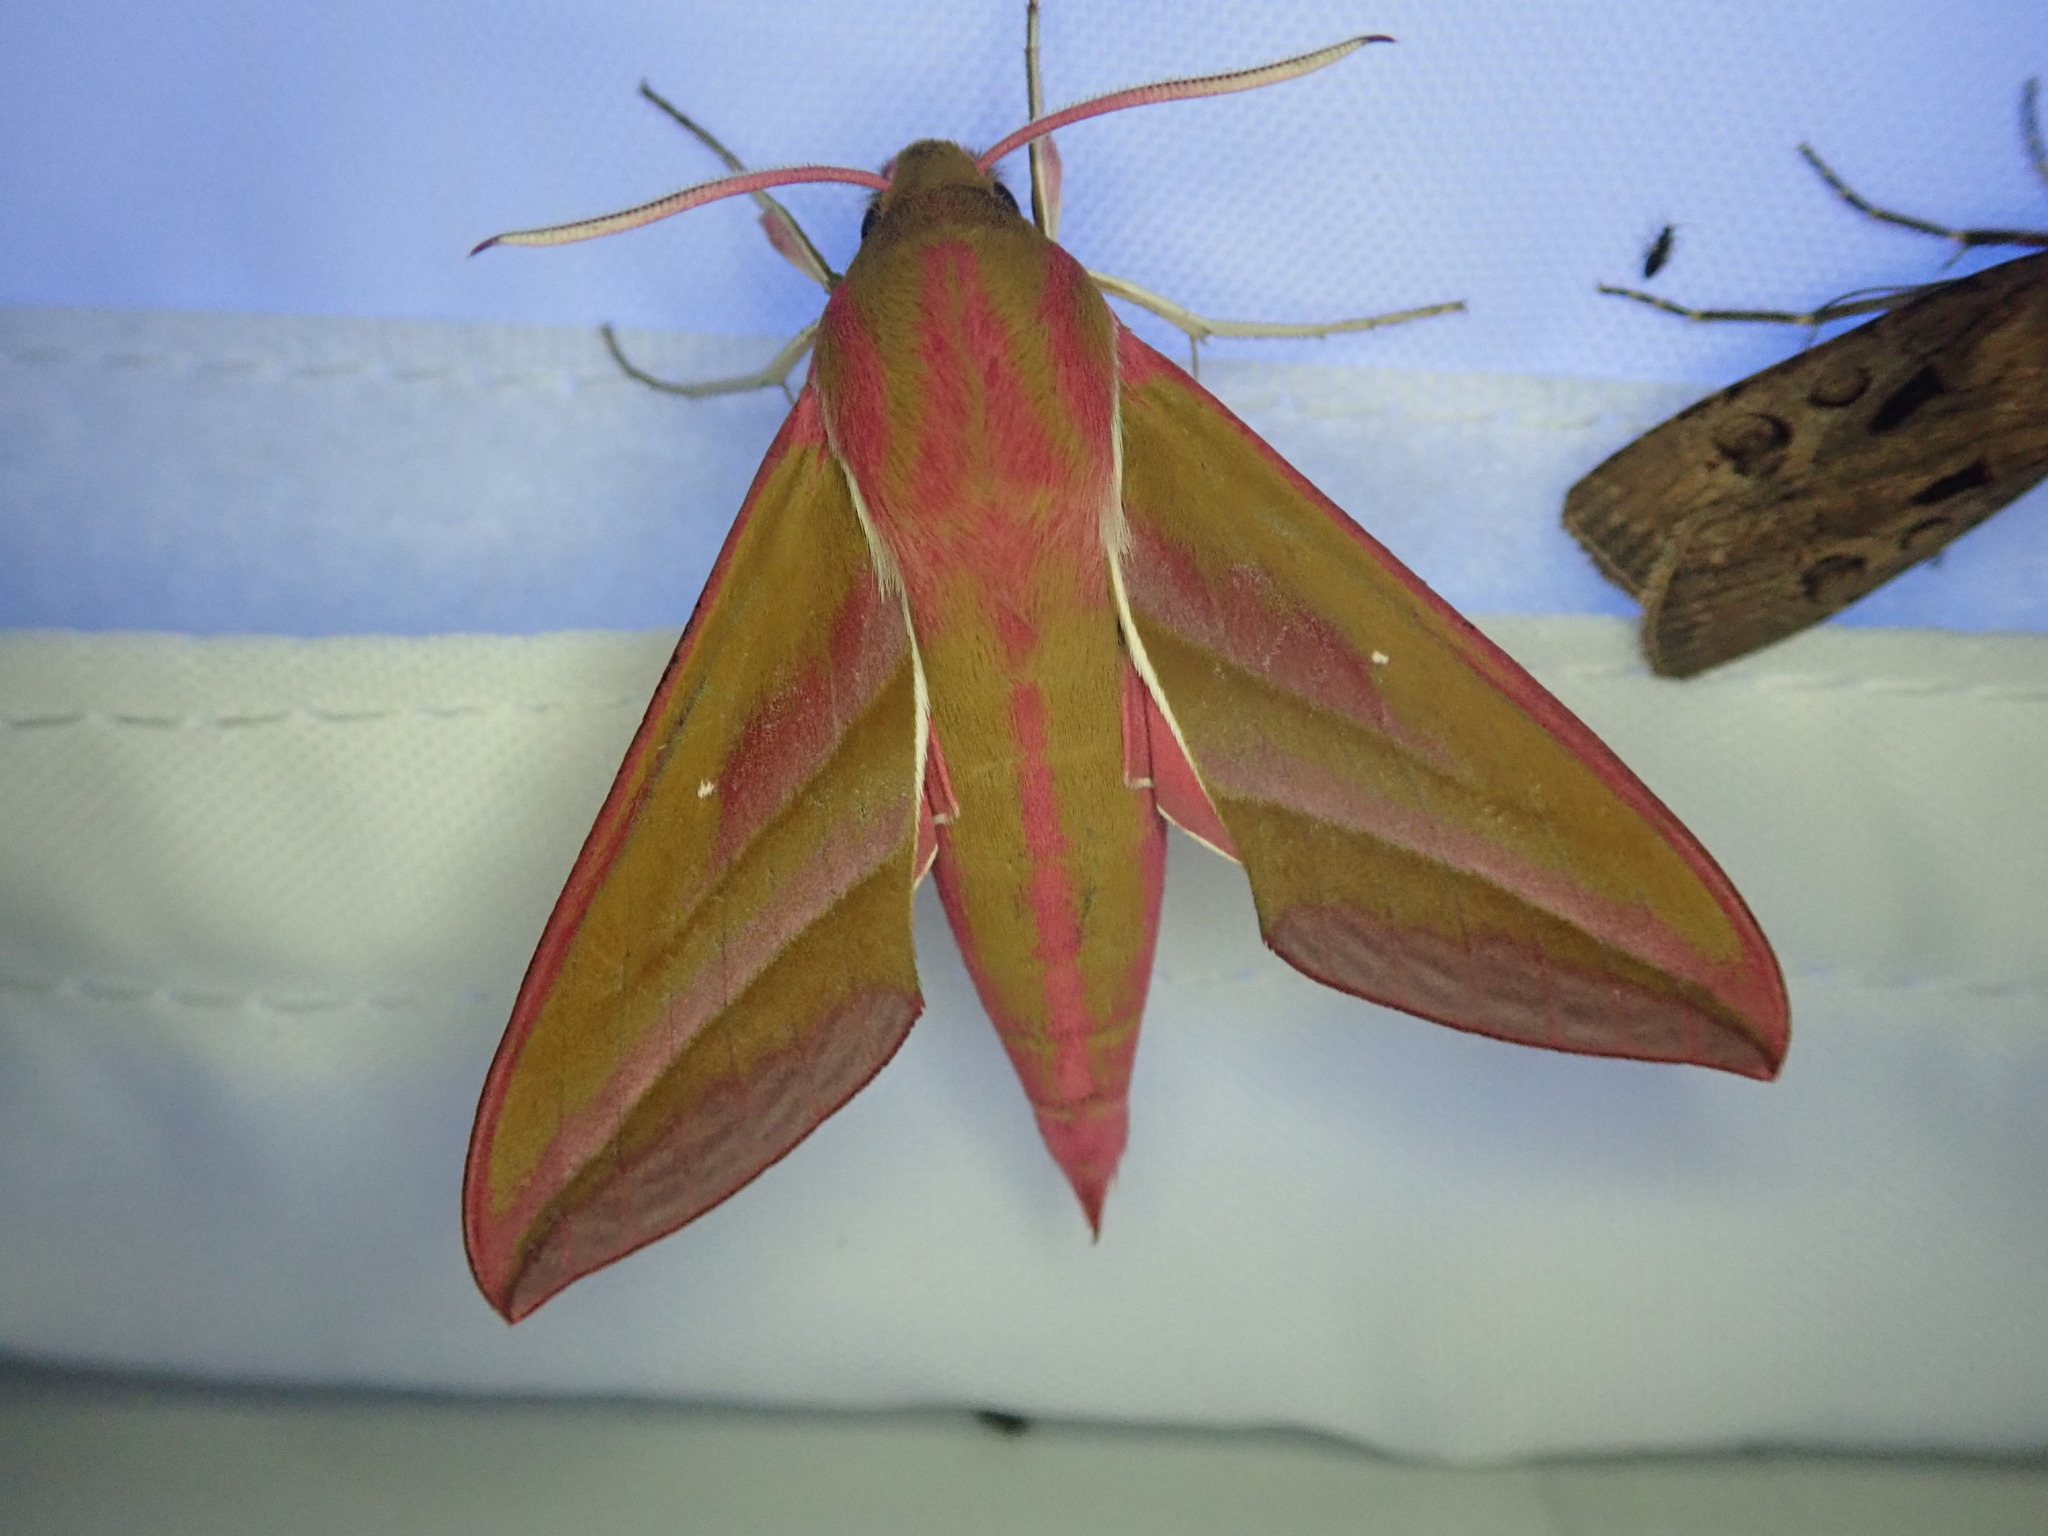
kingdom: Animalia
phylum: Arthropoda
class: Insecta
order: Lepidoptera
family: Sphingidae
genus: Deilephila
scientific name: Deilephila elpenor
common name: Elephant hawk-moth
